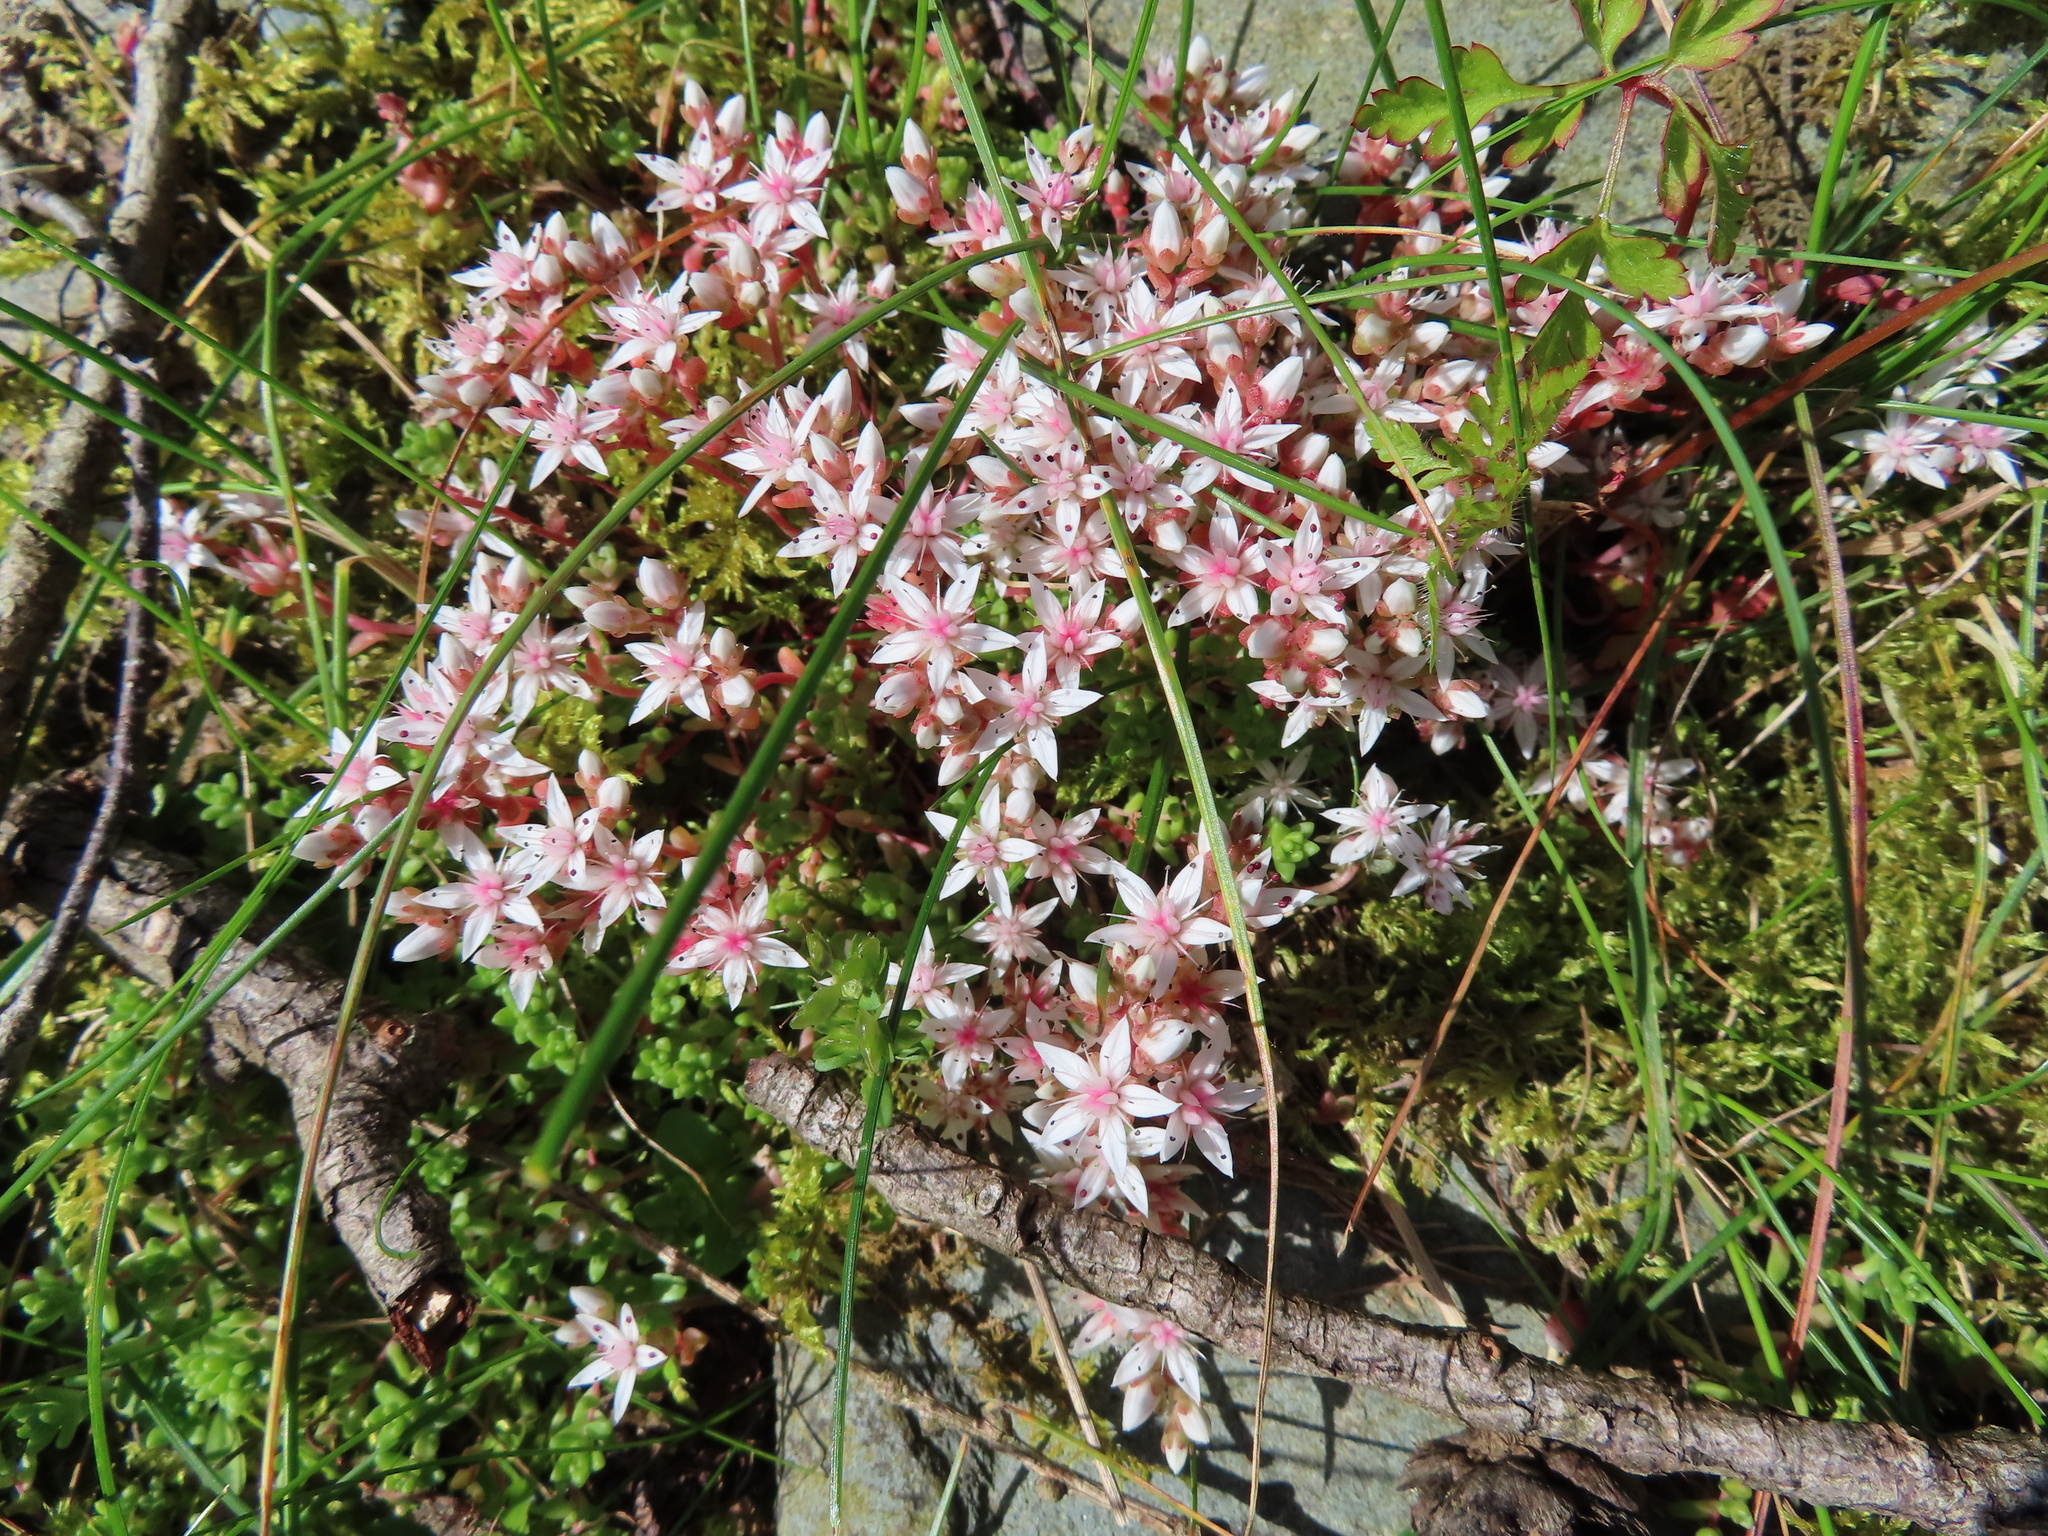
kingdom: Plantae
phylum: Tracheophyta
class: Magnoliopsida
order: Saxifragales
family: Crassulaceae
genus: Sedum
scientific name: Sedum anglicum
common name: English stonecrop
